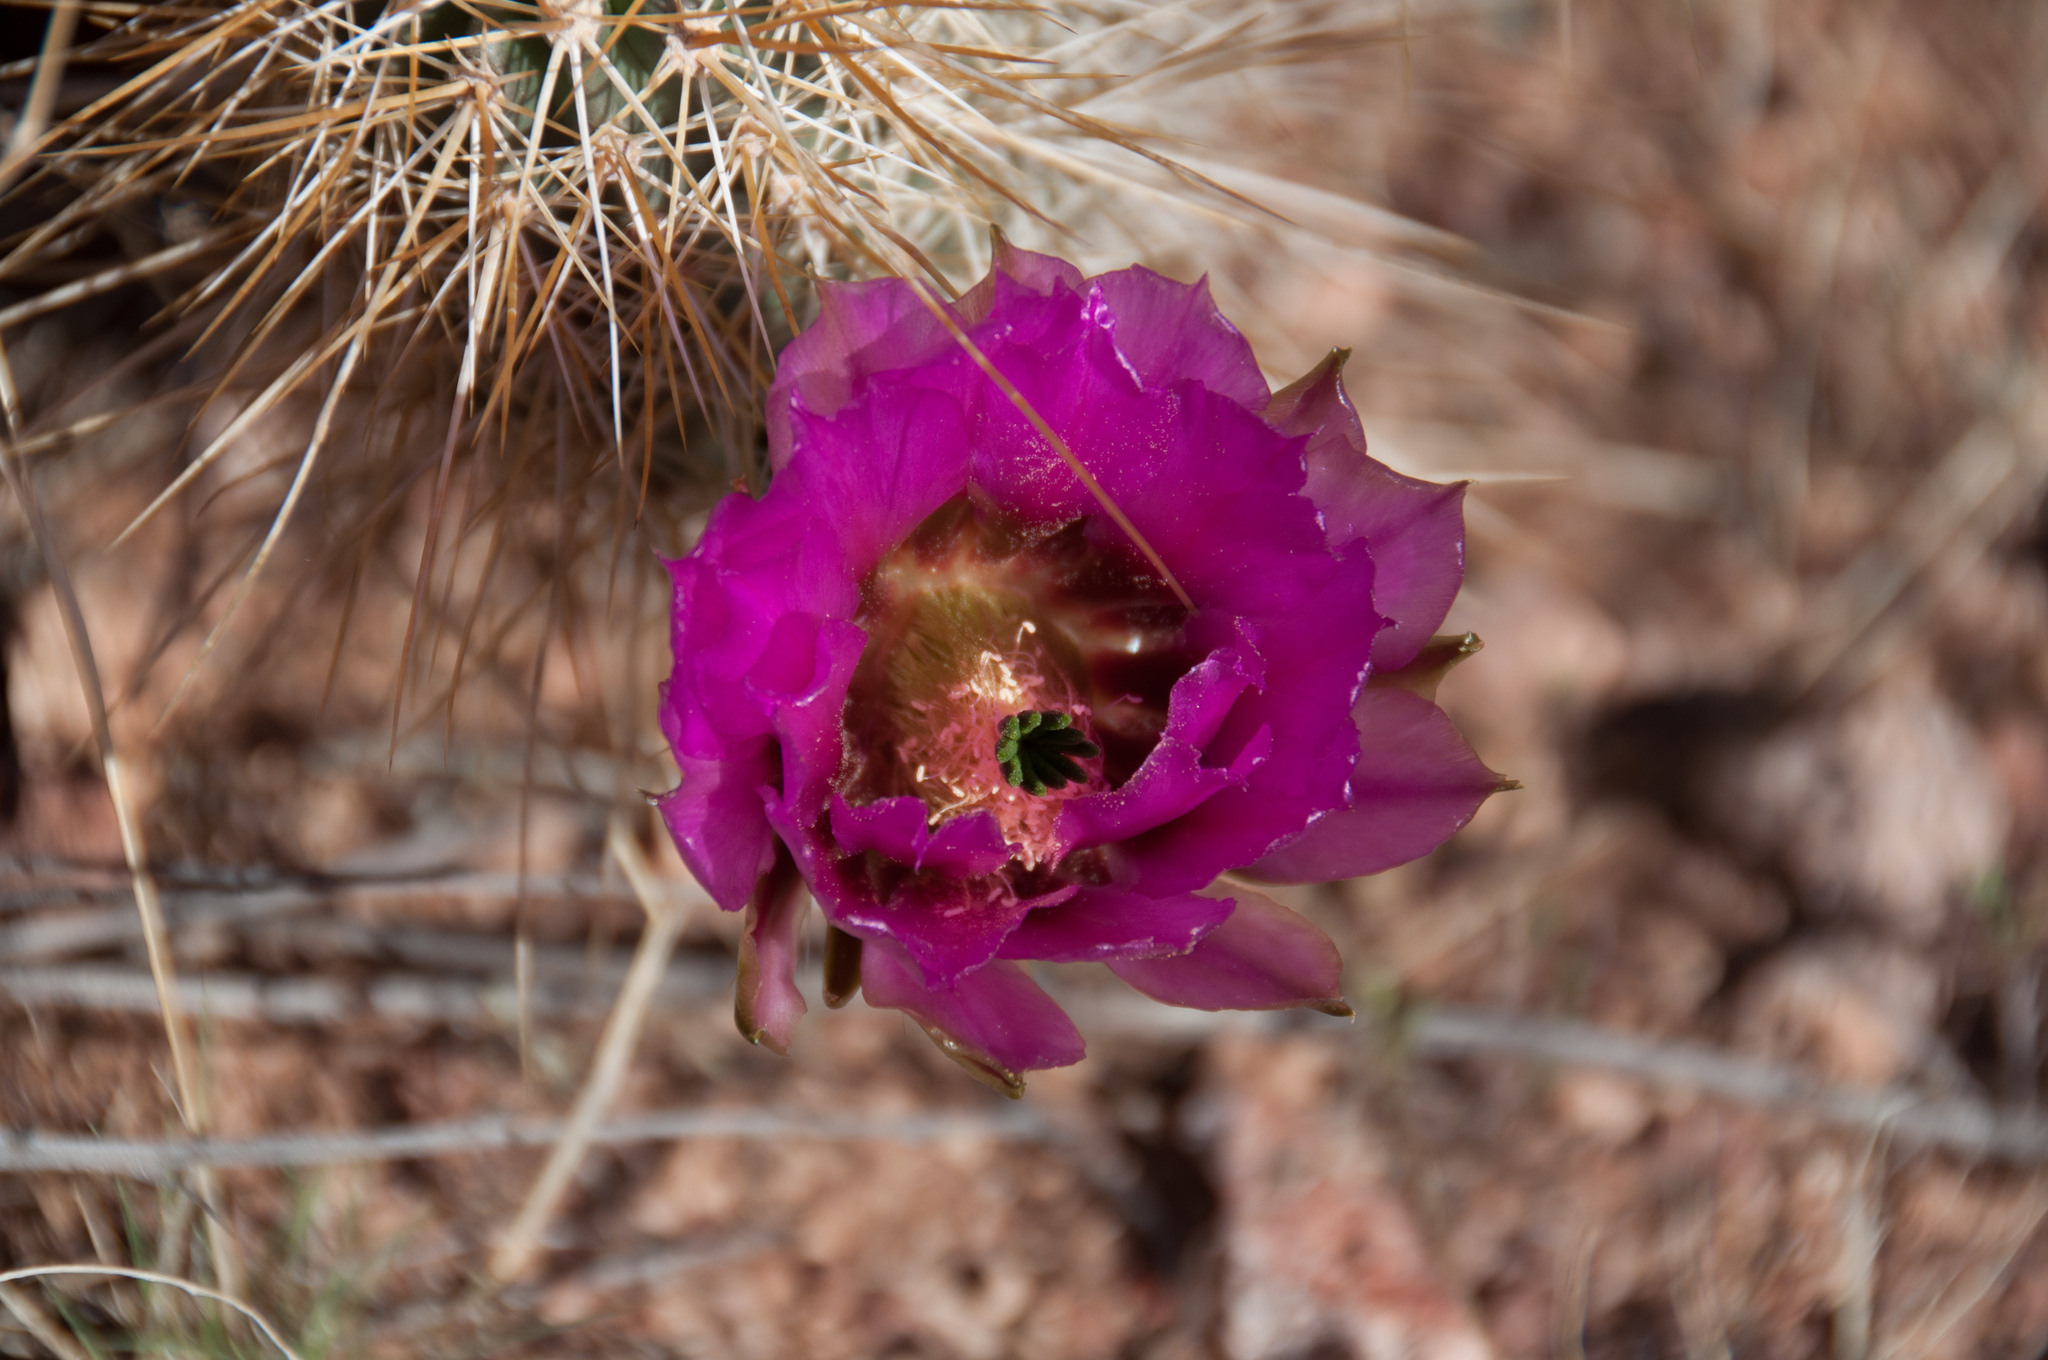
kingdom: Plantae
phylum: Tracheophyta
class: Magnoliopsida
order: Caryophyllales
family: Cactaceae
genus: Echinocereus
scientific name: Echinocereus engelmannii
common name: Engelmann's hedgehog cactus
